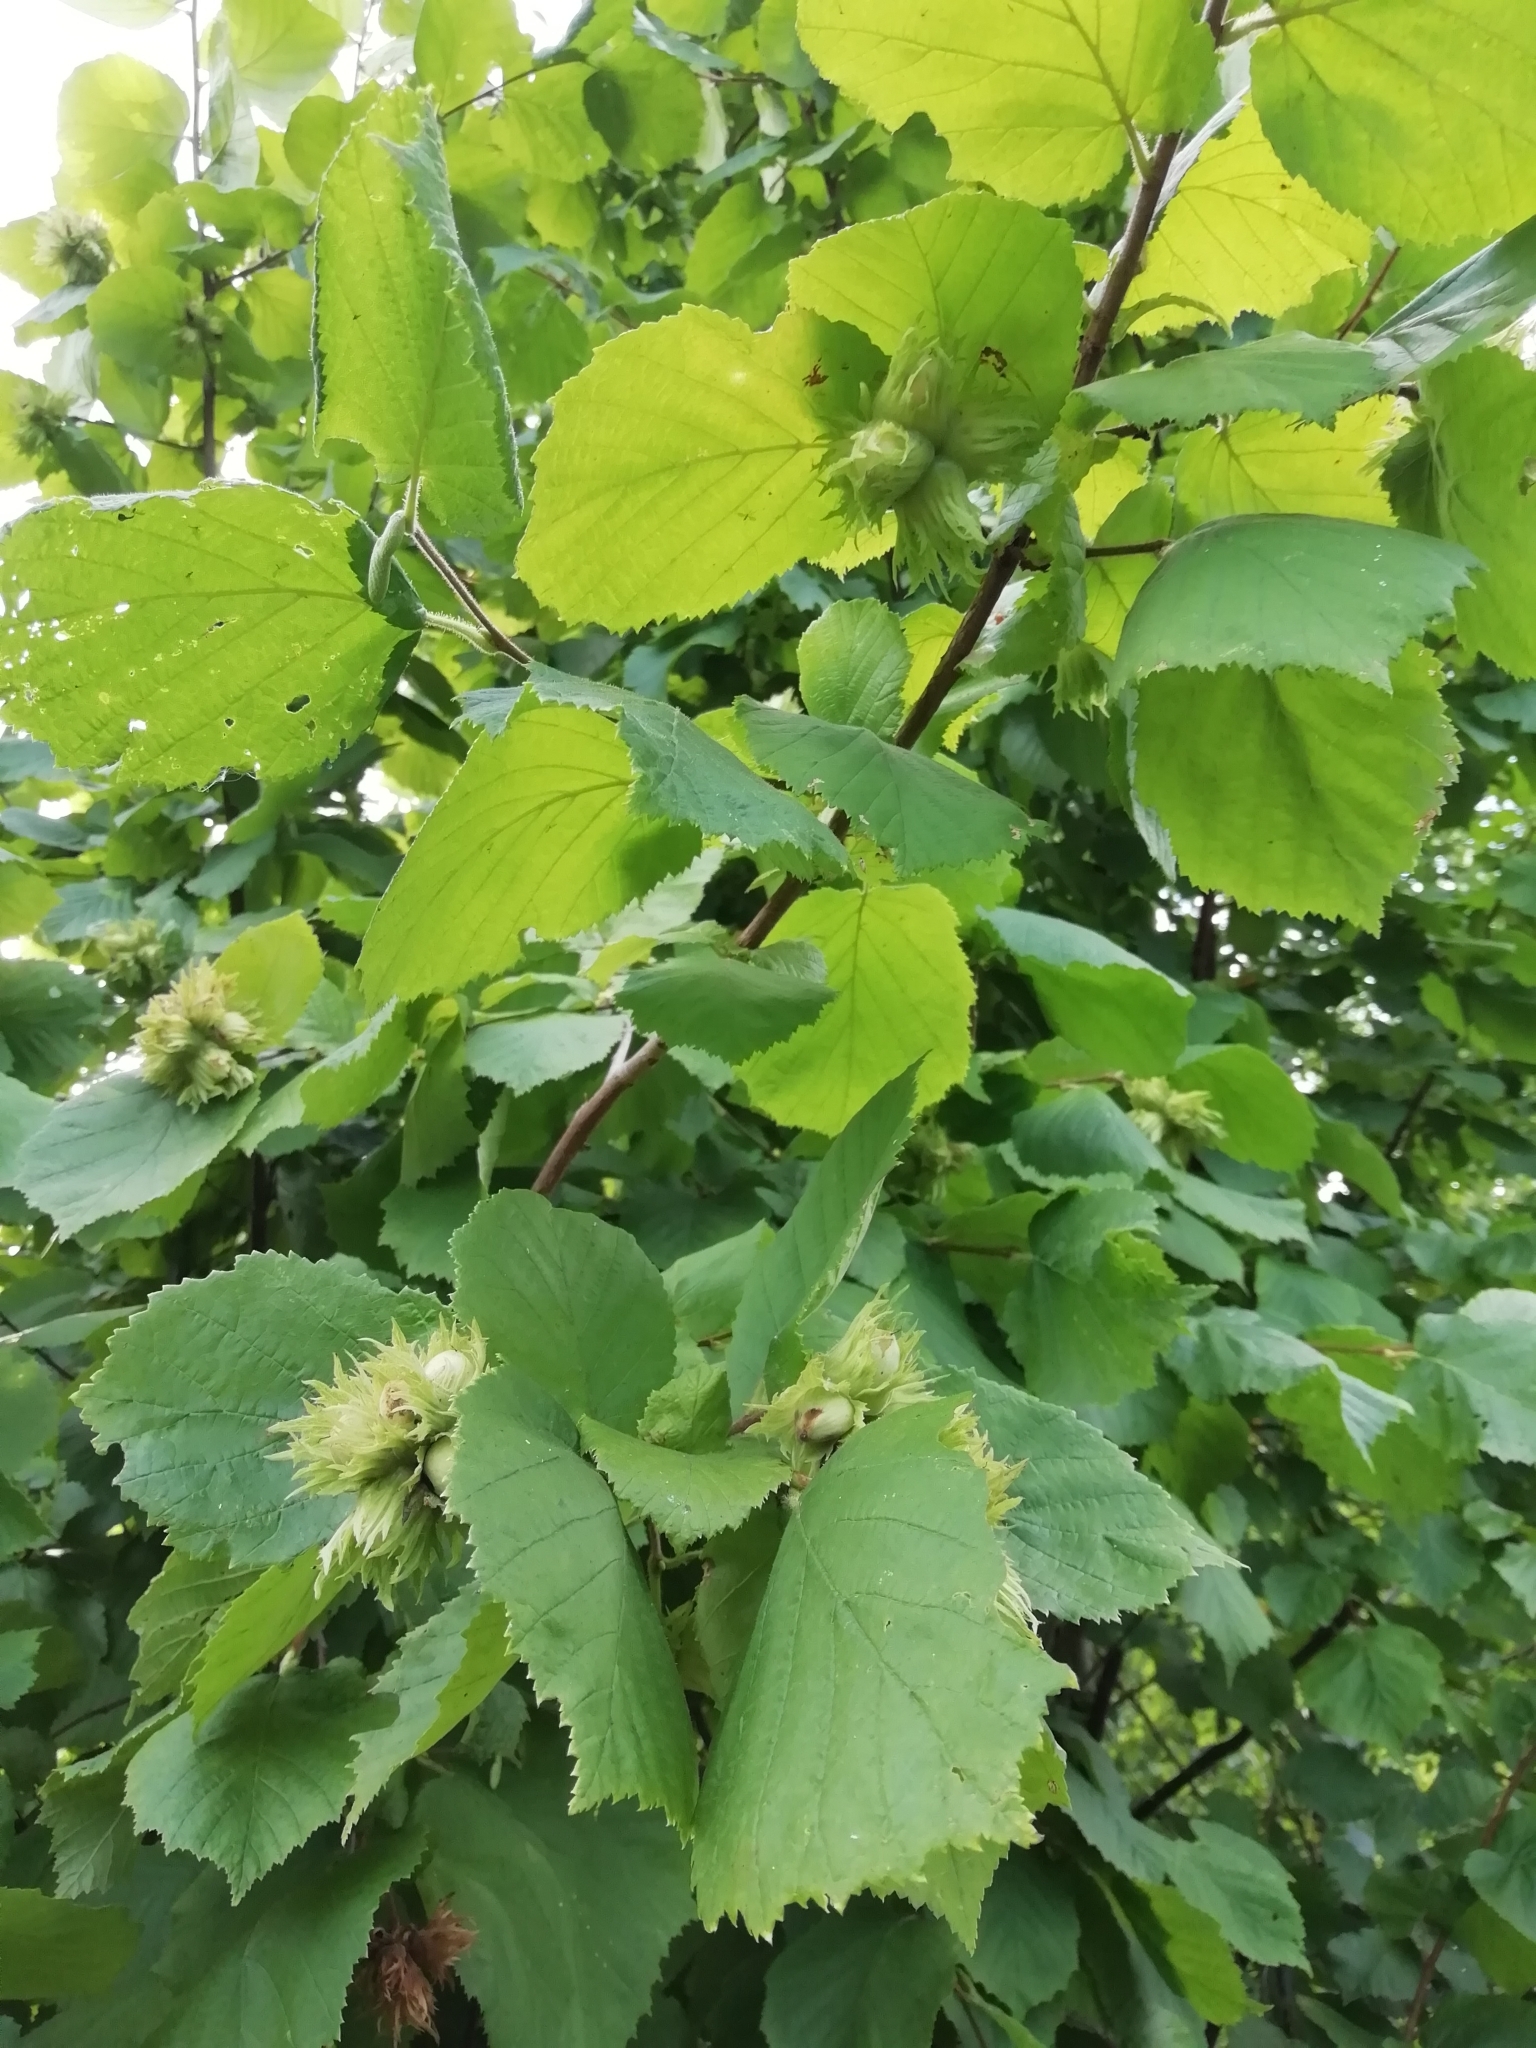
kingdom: Plantae
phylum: Tracheophyta
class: Magnoliopsida
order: Fagales
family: Betulaceae
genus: Corylus
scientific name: Corylus avellana
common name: European hazel
